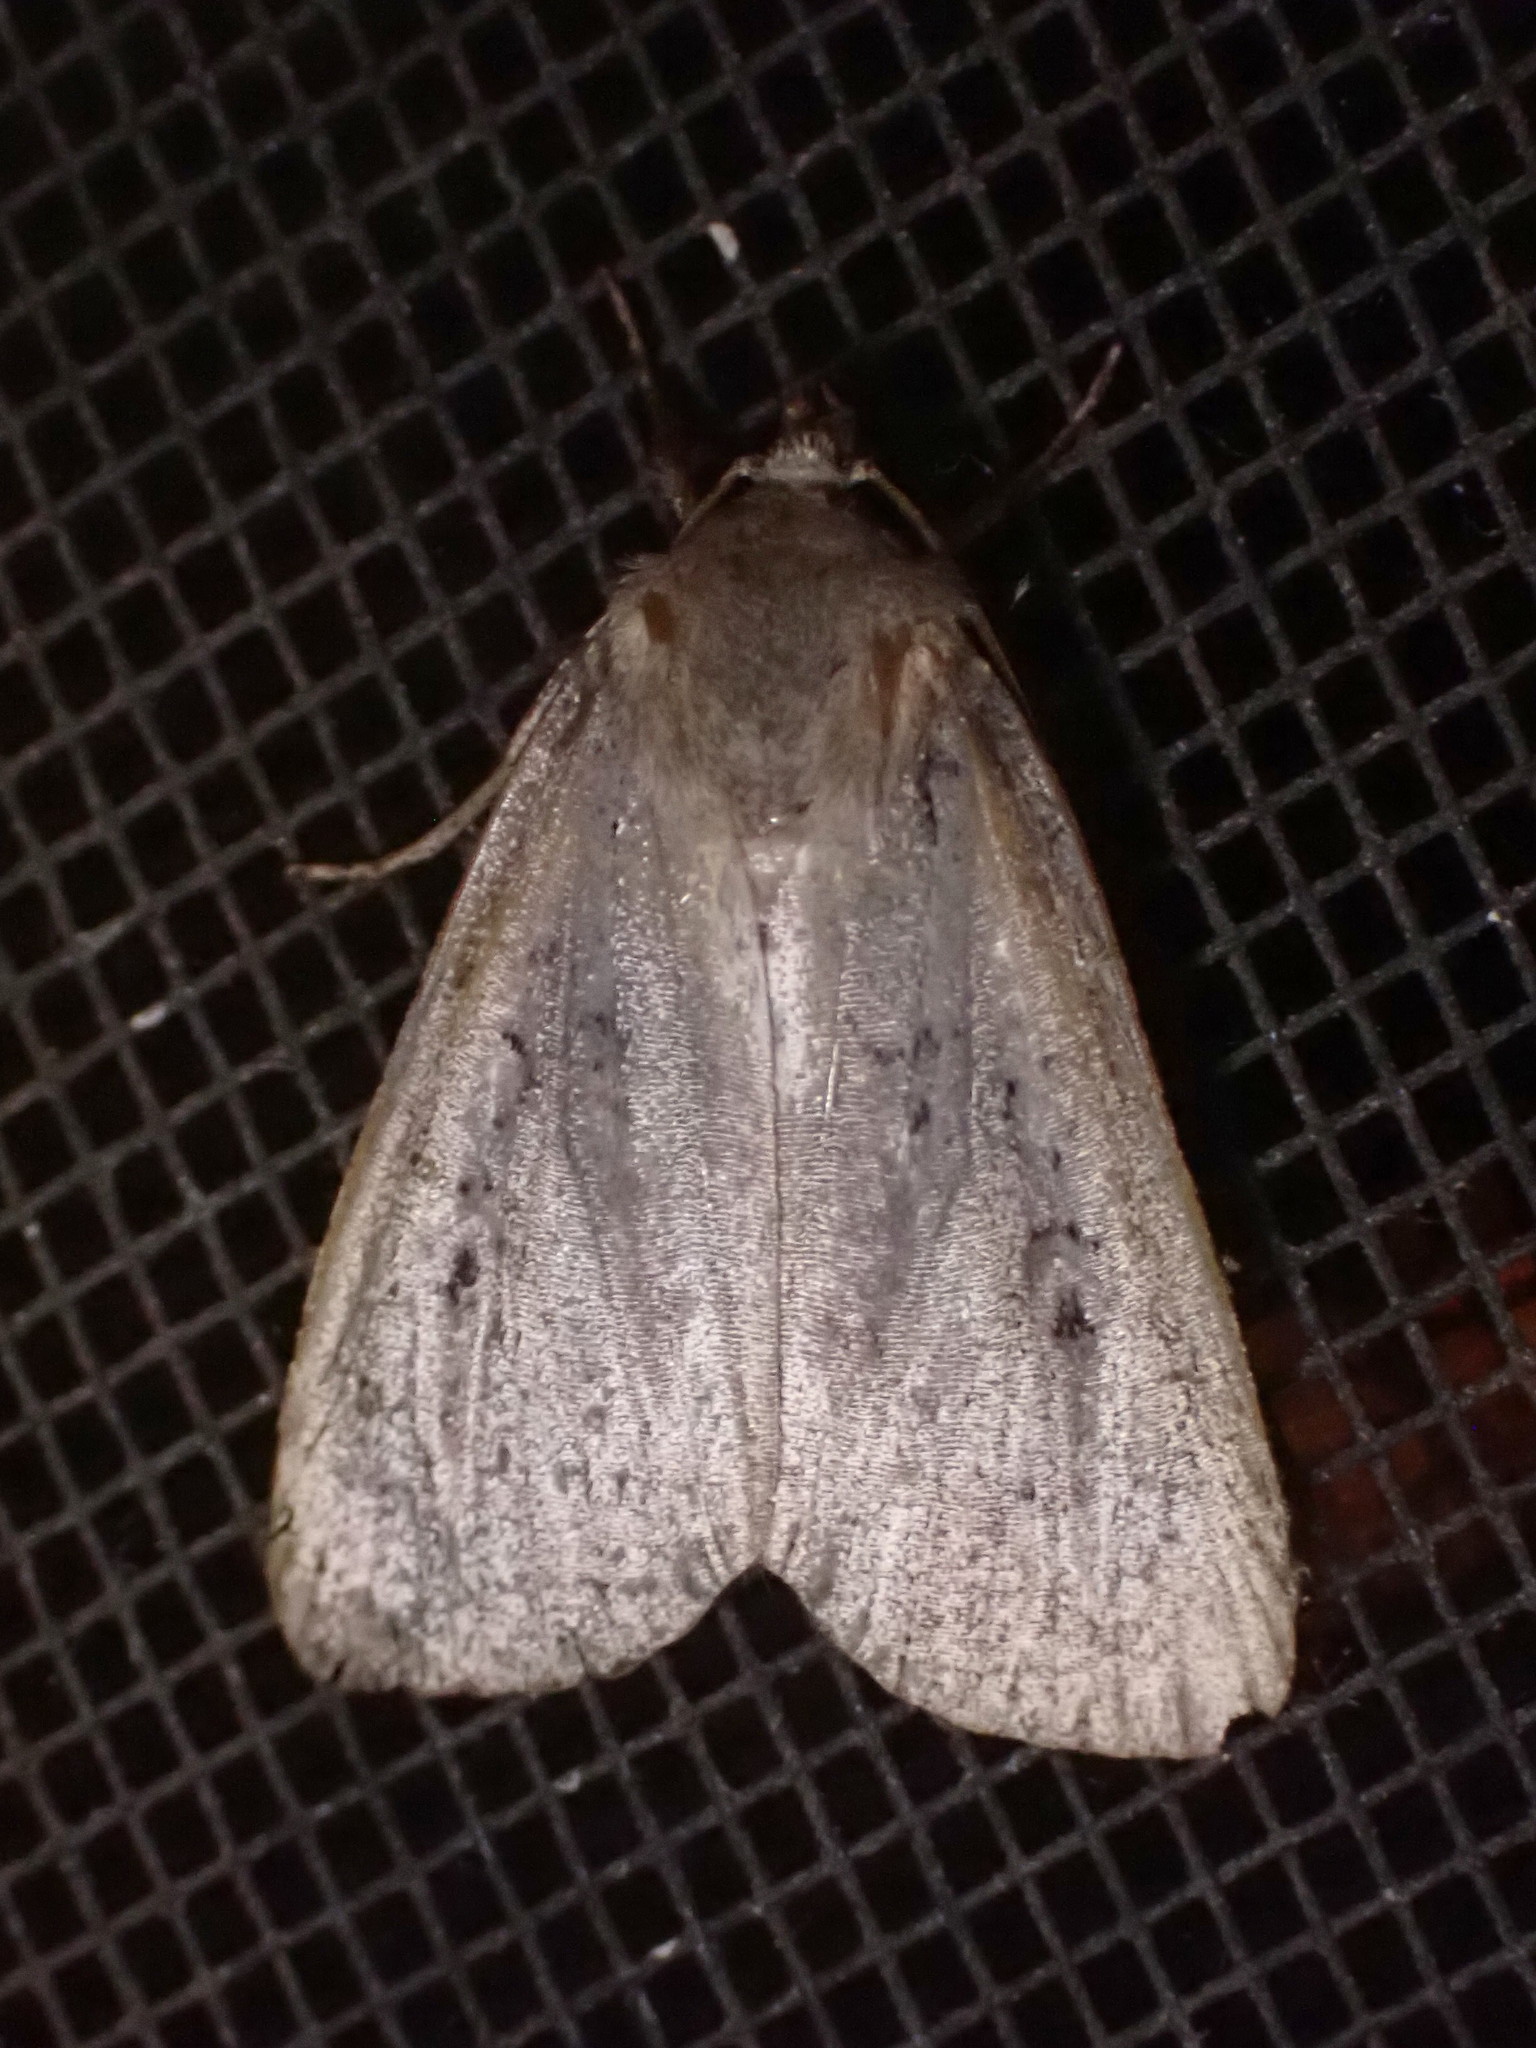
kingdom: Animalia
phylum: Arthropoda
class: Insecta
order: Lepidoptera
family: Noctuidae
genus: Graphiphora
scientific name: Graphiphora augur
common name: Double dart
